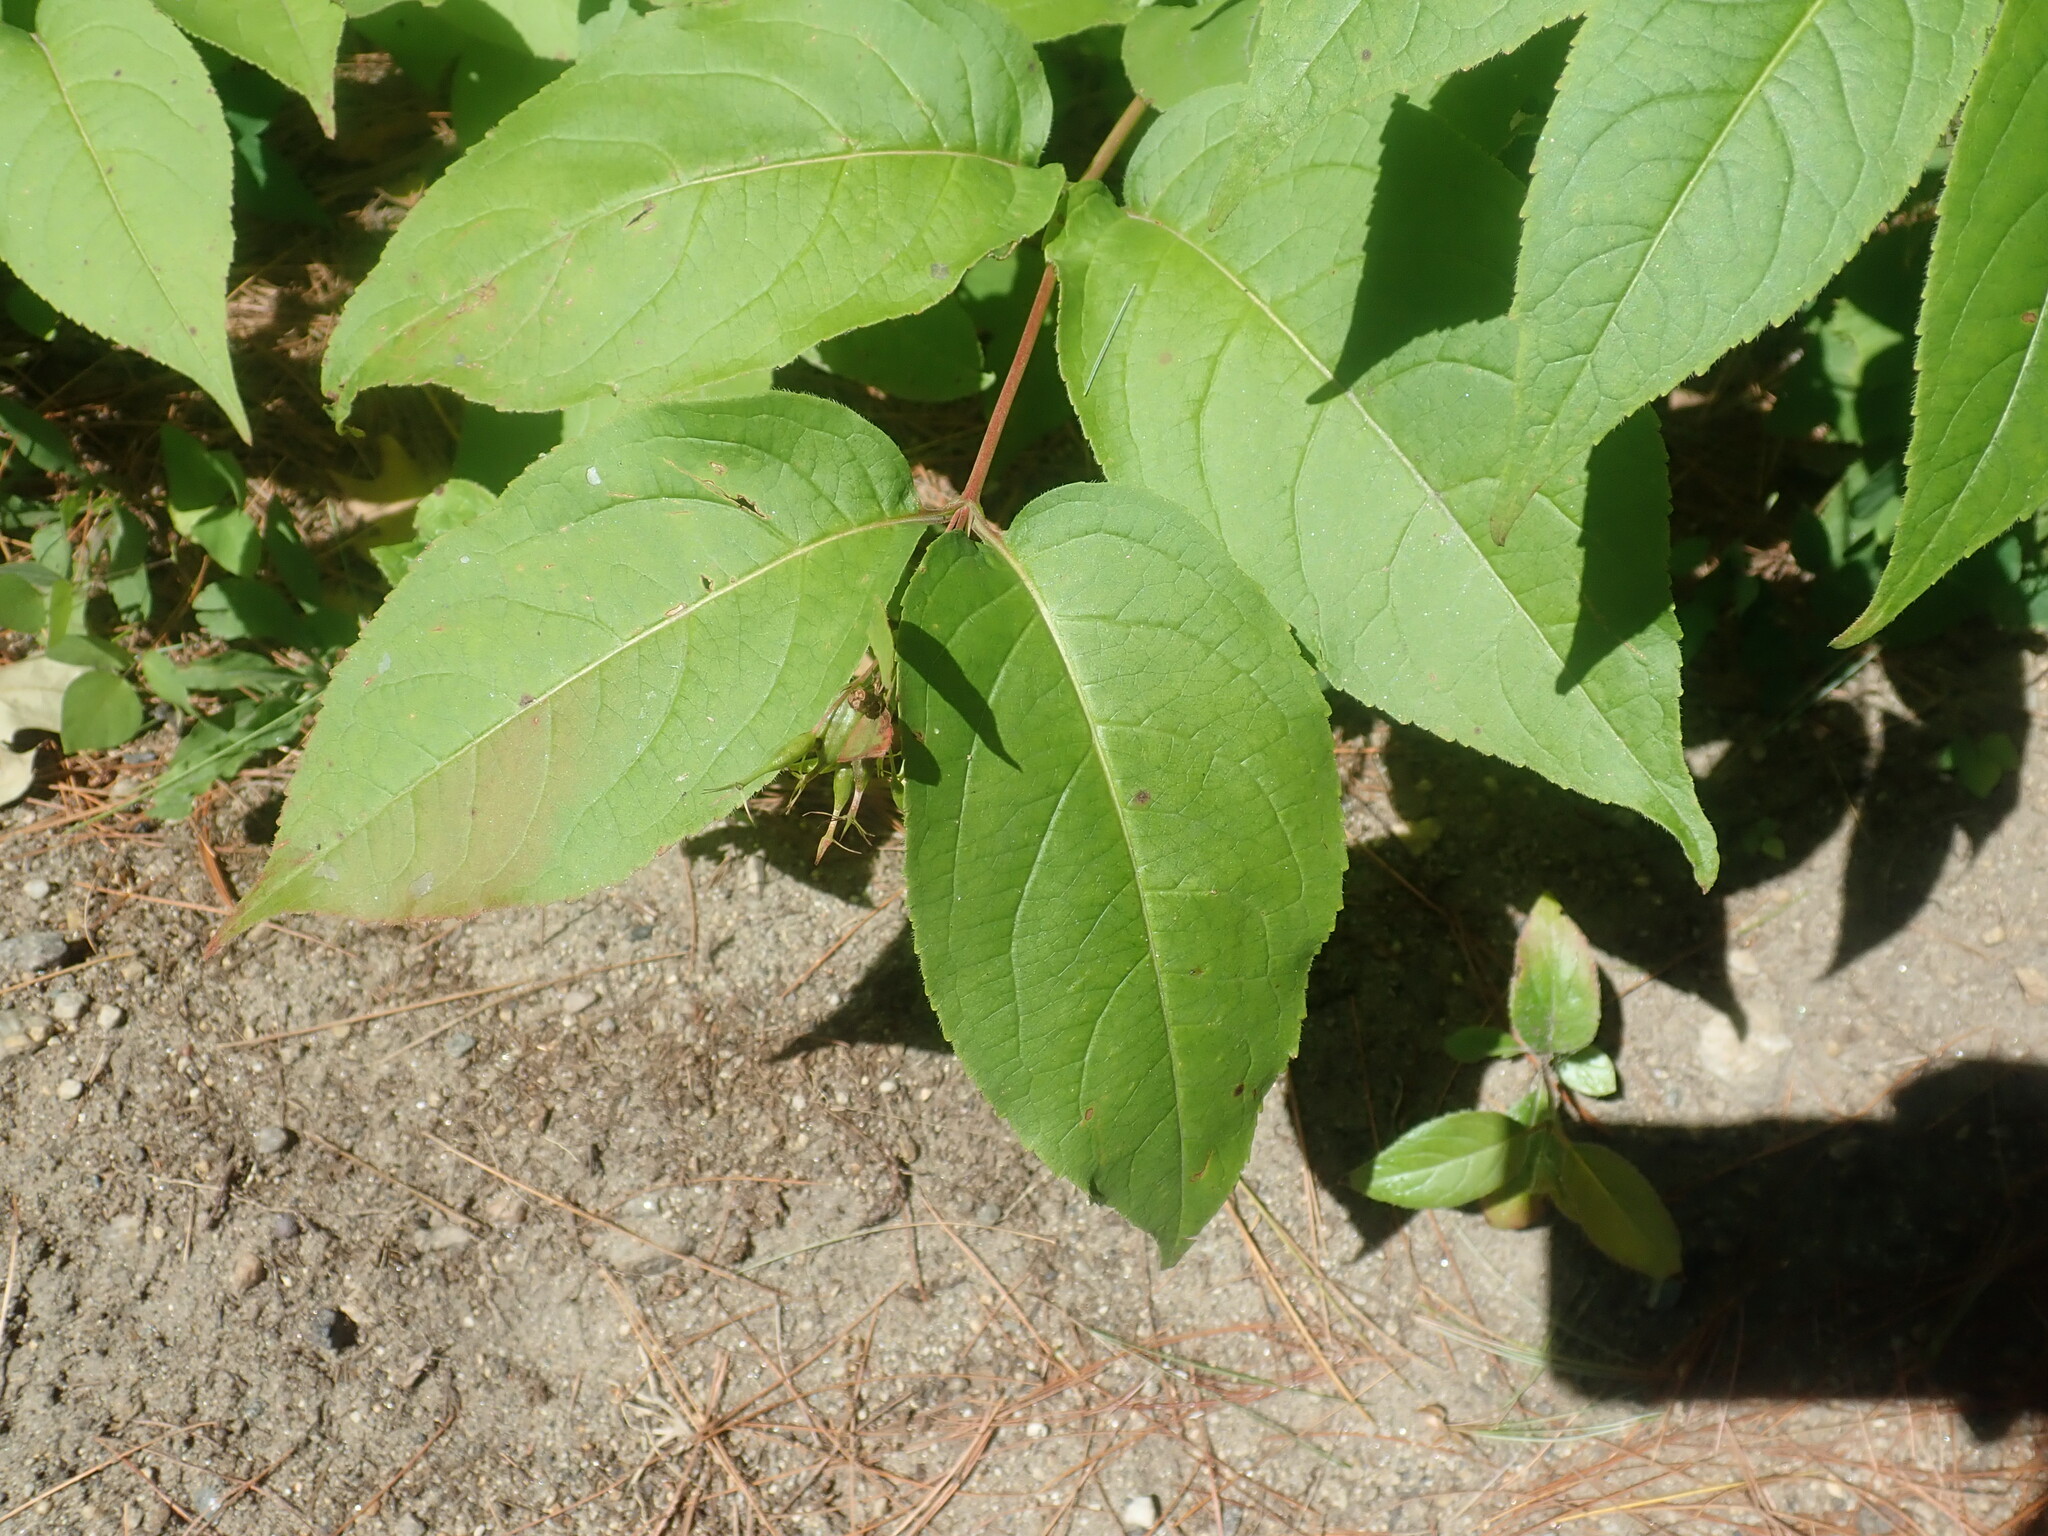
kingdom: Plantae
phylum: Tracheophyta
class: Magnoliopsida
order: Dipsacales
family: Caprifoliaceae
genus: Diervilla
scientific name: Diervilla lonicera
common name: Bush-honeysuckle
